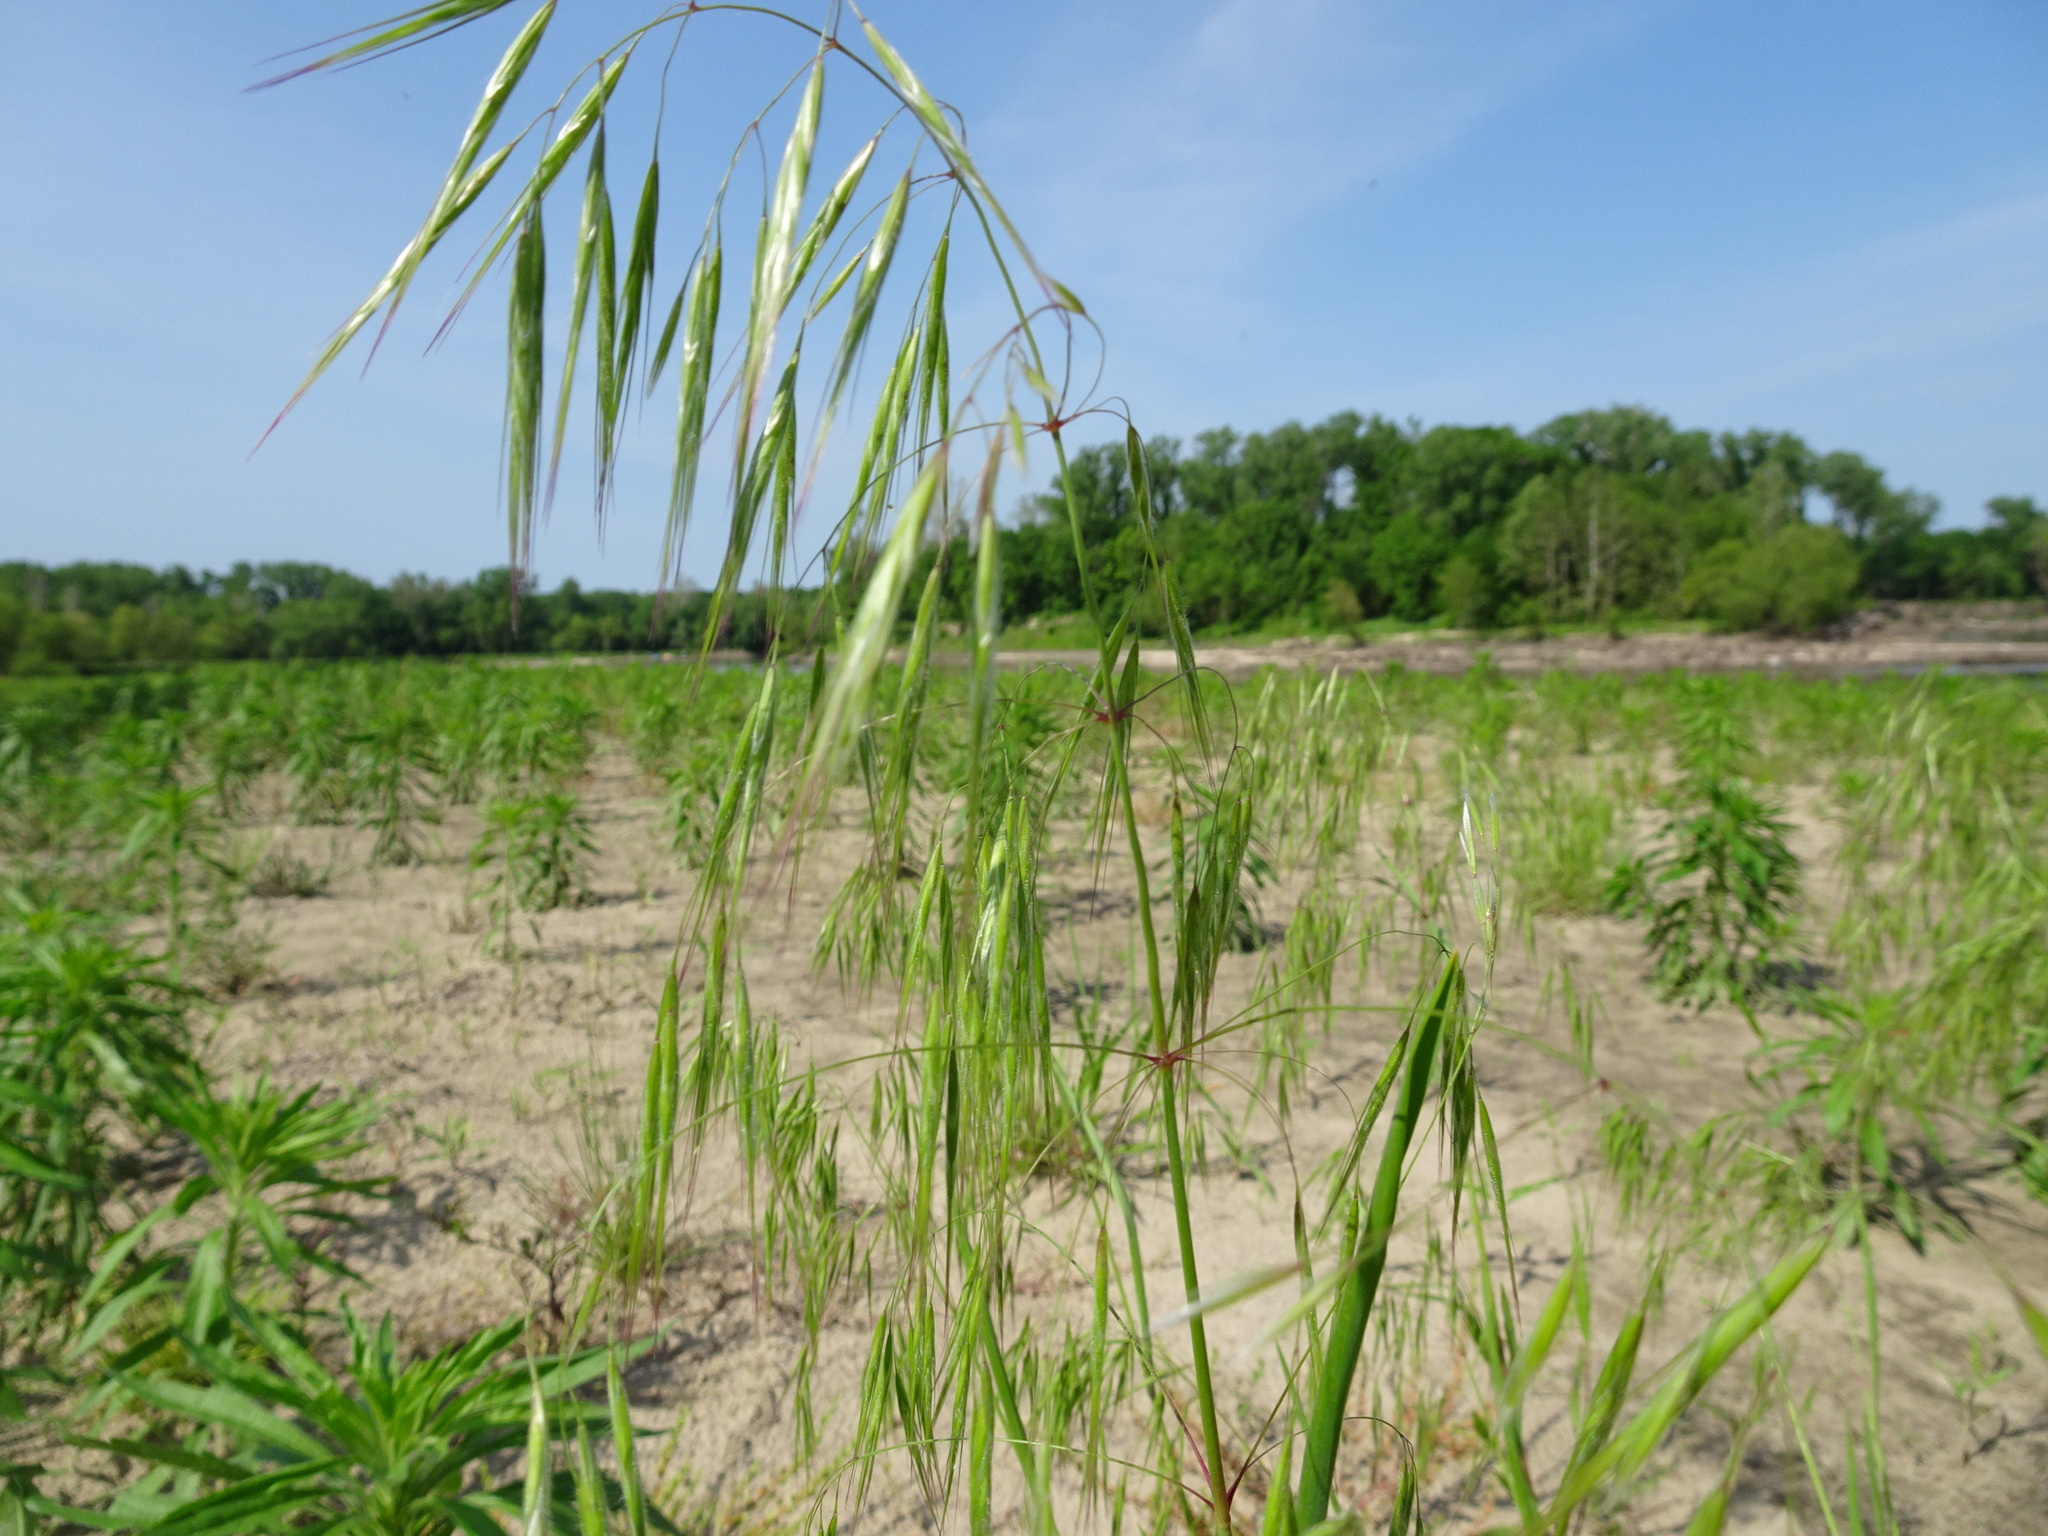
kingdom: Plantae
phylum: Tracheophyta
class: Liliopsida
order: Poales
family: Poaceae
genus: Bromus
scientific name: Bromus tectorum
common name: Cheatgrass
